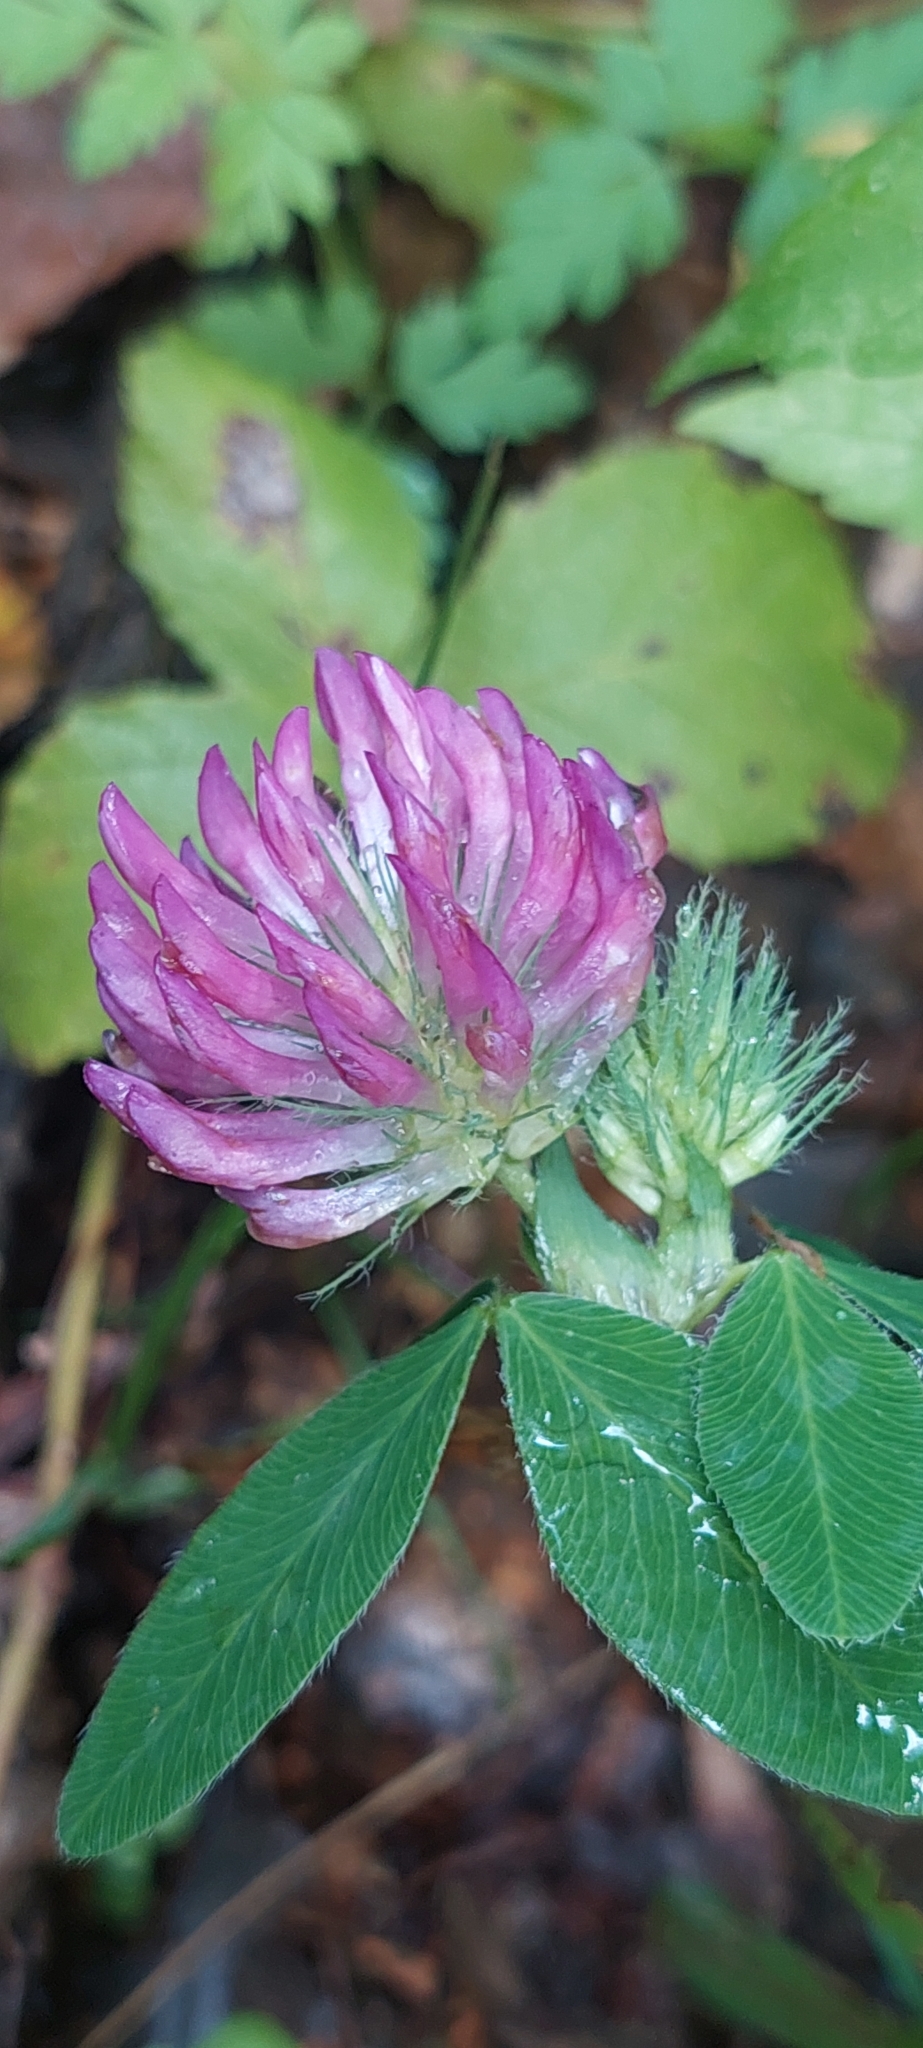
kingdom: Plantae
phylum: Tracheophyta
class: Magnoliopsida
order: Fabales
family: Fabaceae
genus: Trifolium
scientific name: Trifolium pratense
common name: Red clover
